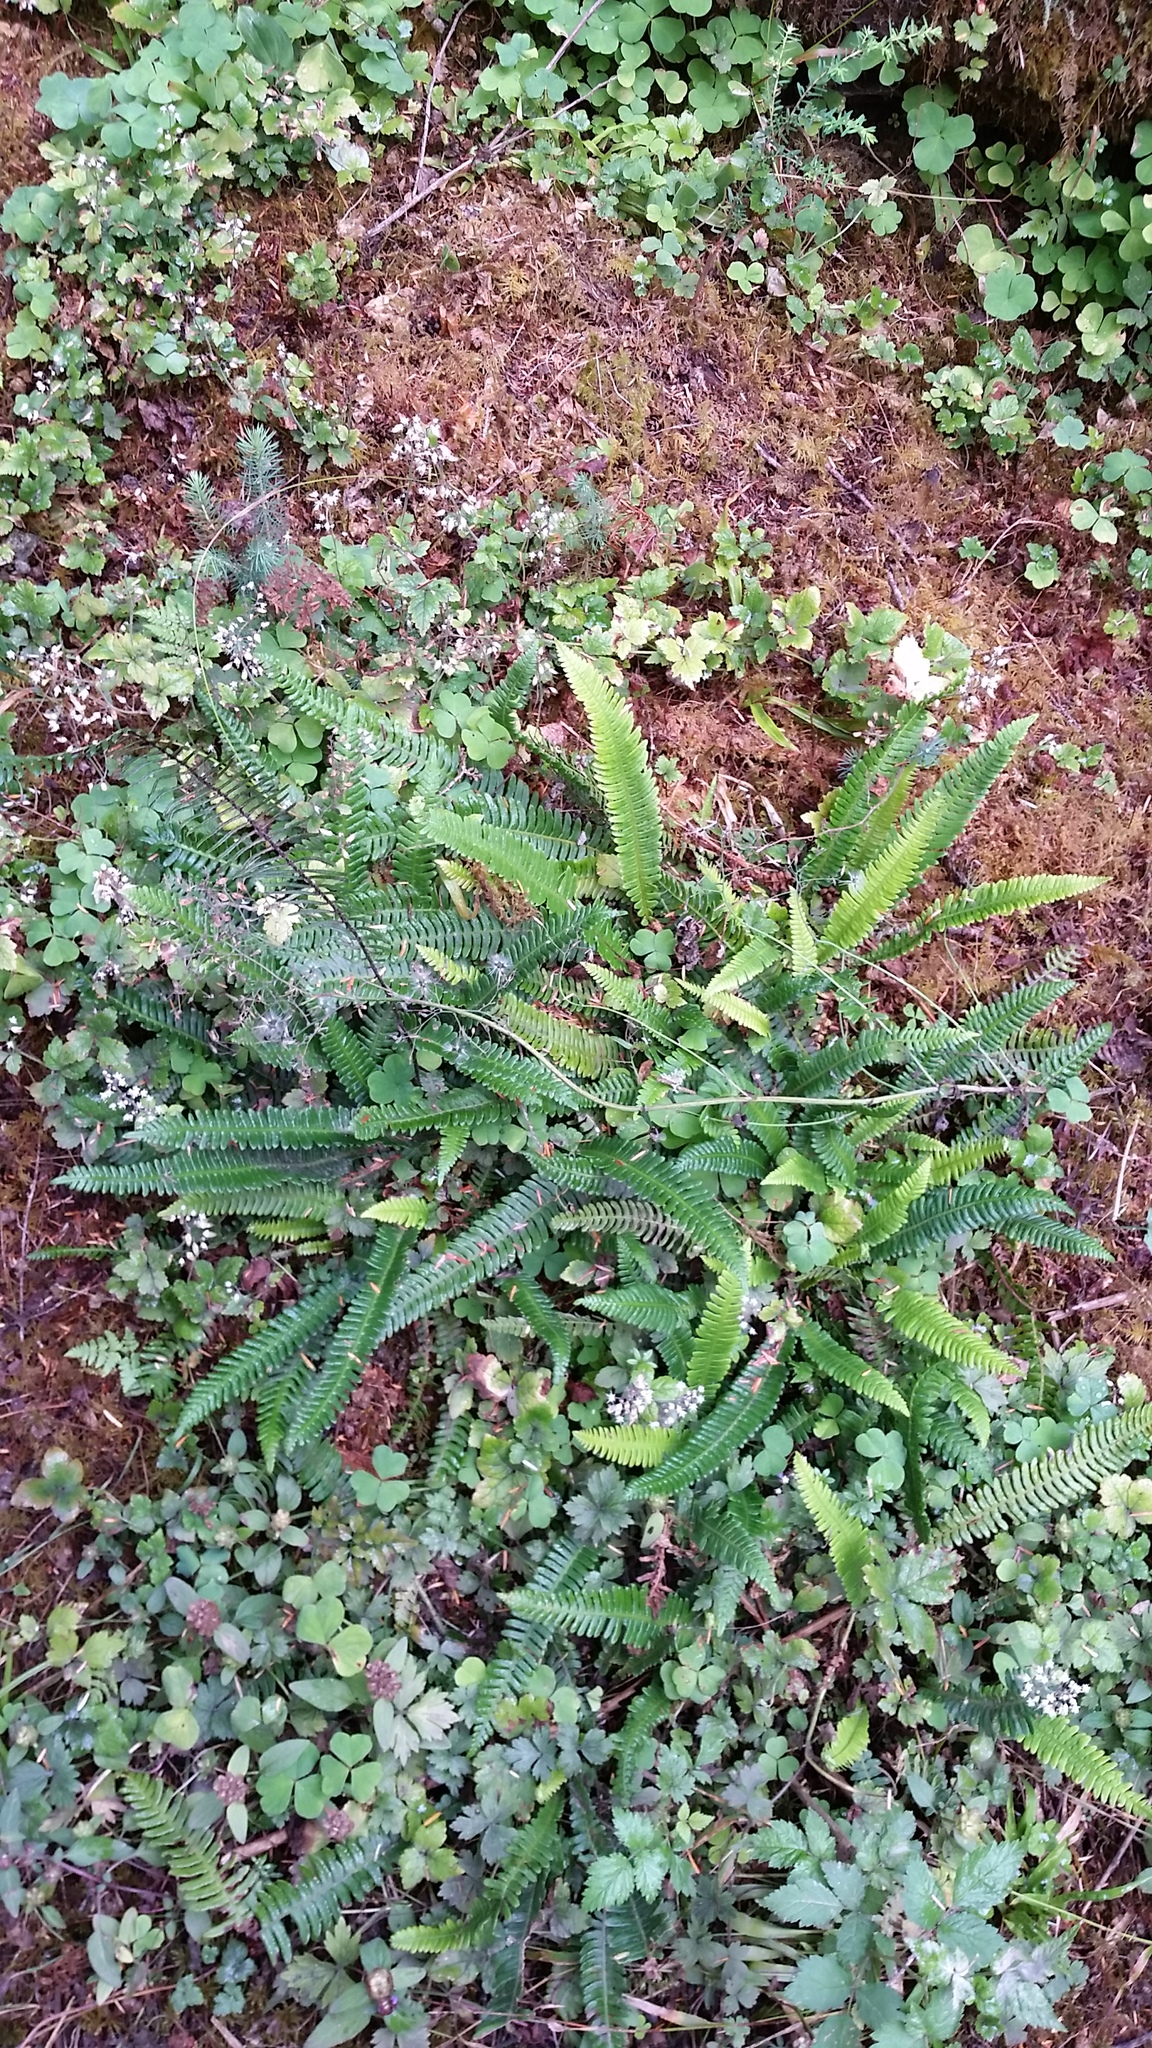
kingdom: Plantae
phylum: Tracheophyta
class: Polypodiopsida
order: Polypodiales
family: Blechnaceae
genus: Struthiopteris
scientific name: Struthiopteris spicant
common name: Deer fern
